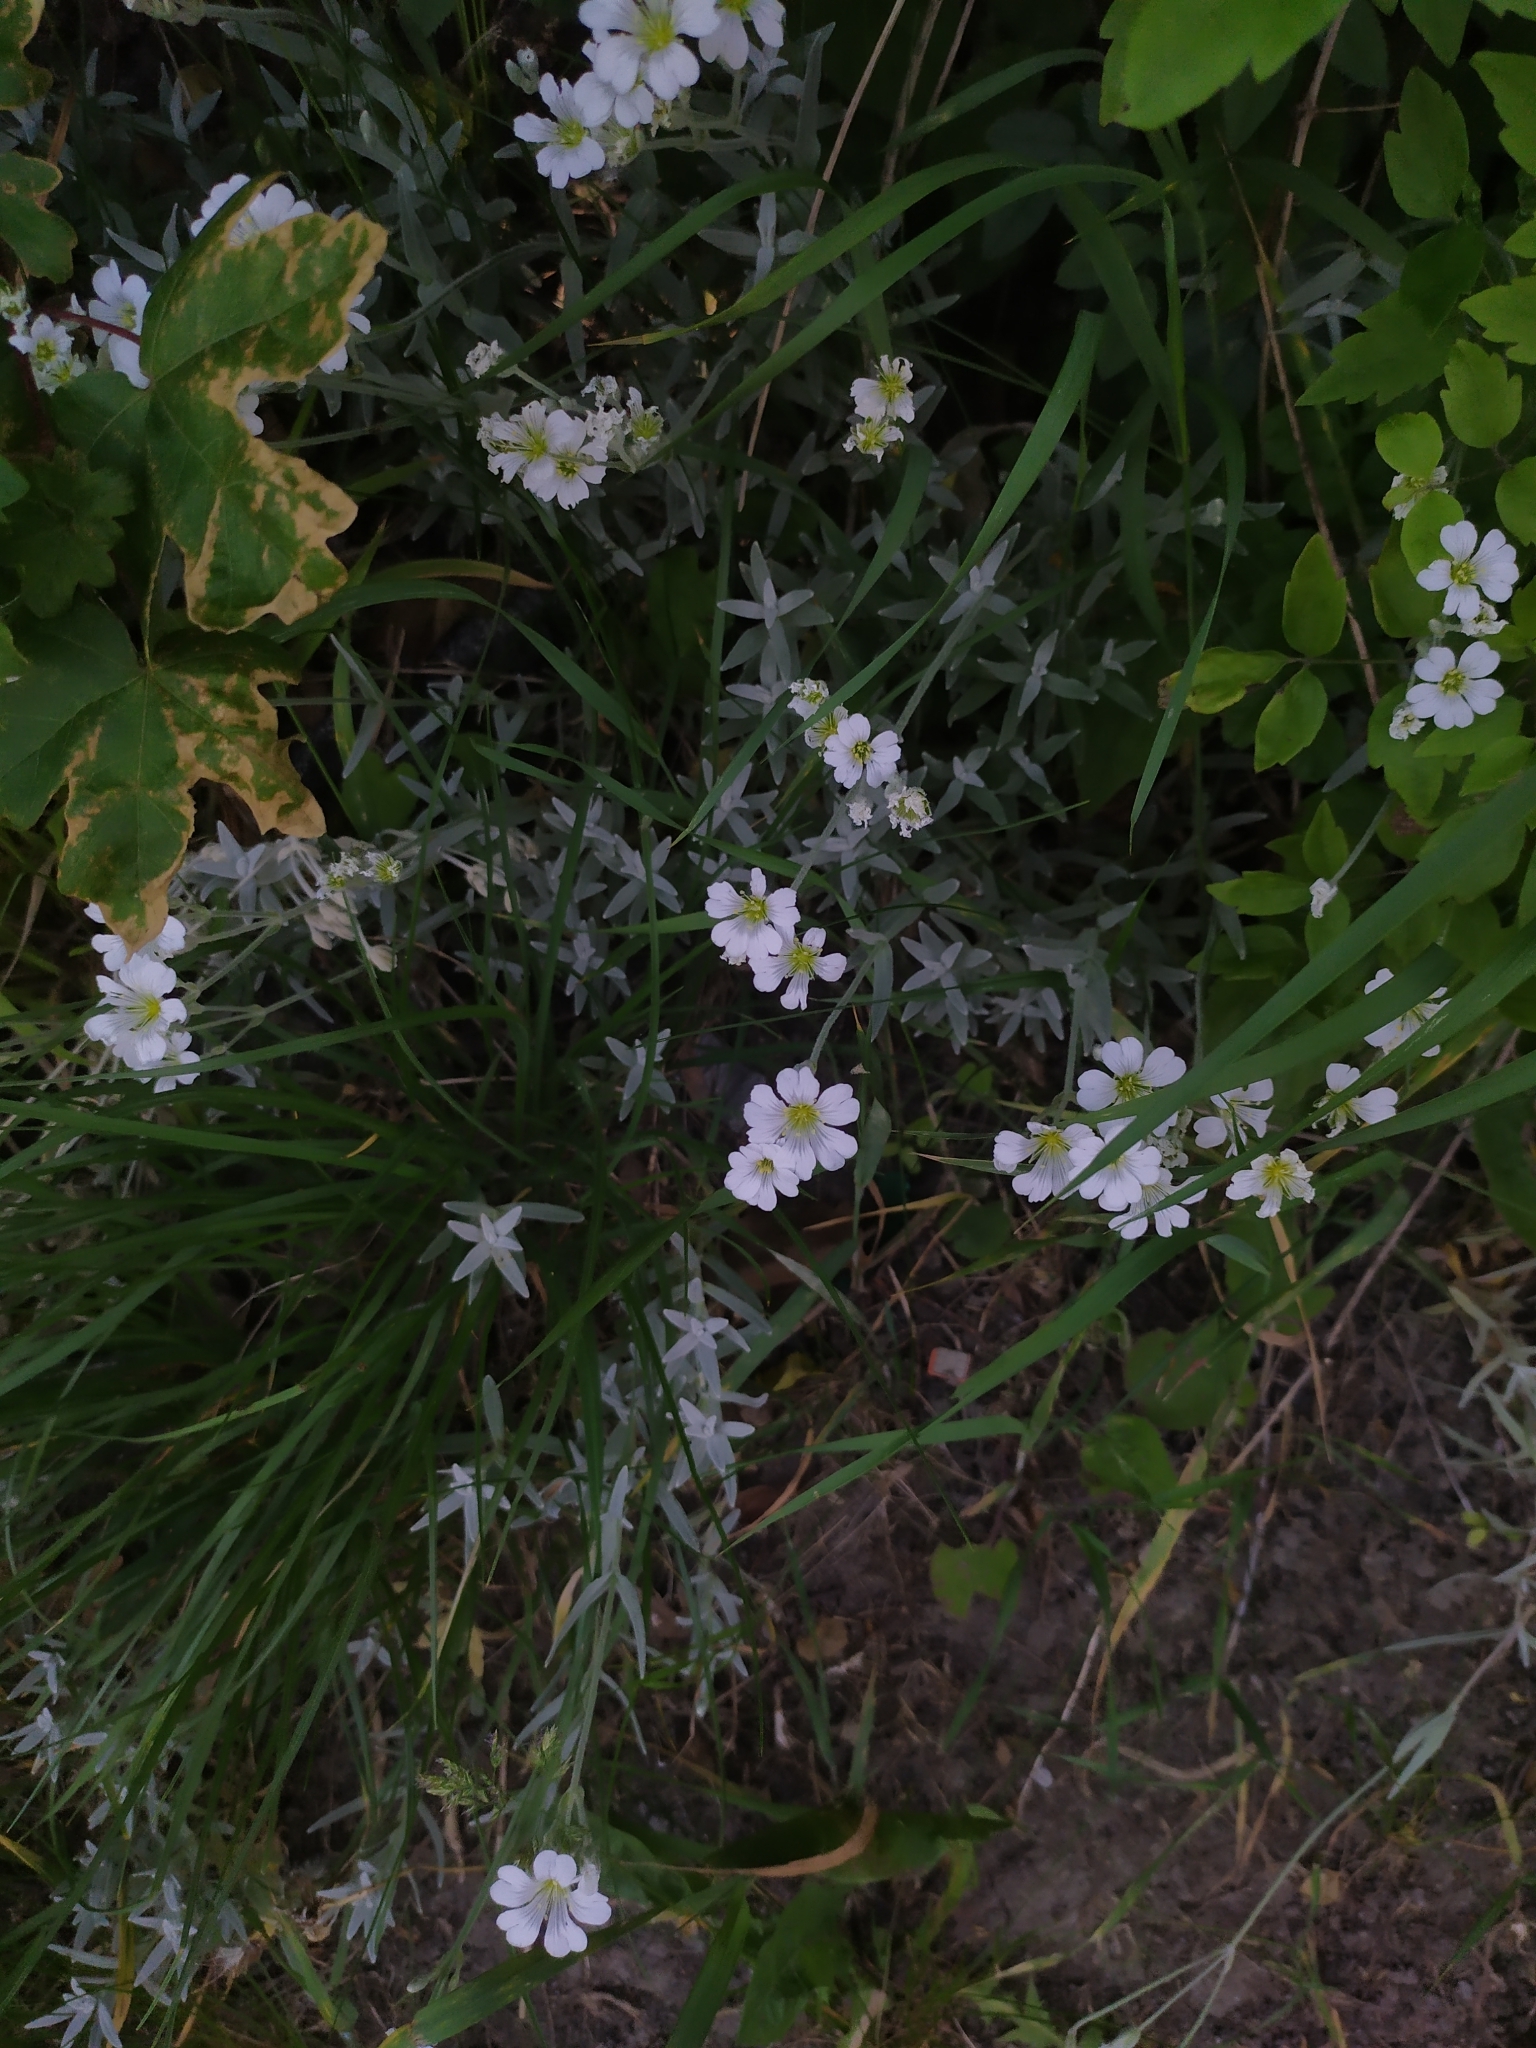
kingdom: Plantae
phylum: Tracheophyta
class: Magnoliopsida
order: Caryophyllales
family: Caryophyllaceae
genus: Cerastium
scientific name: Cerastium tomentosum
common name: Snow-in-summer
